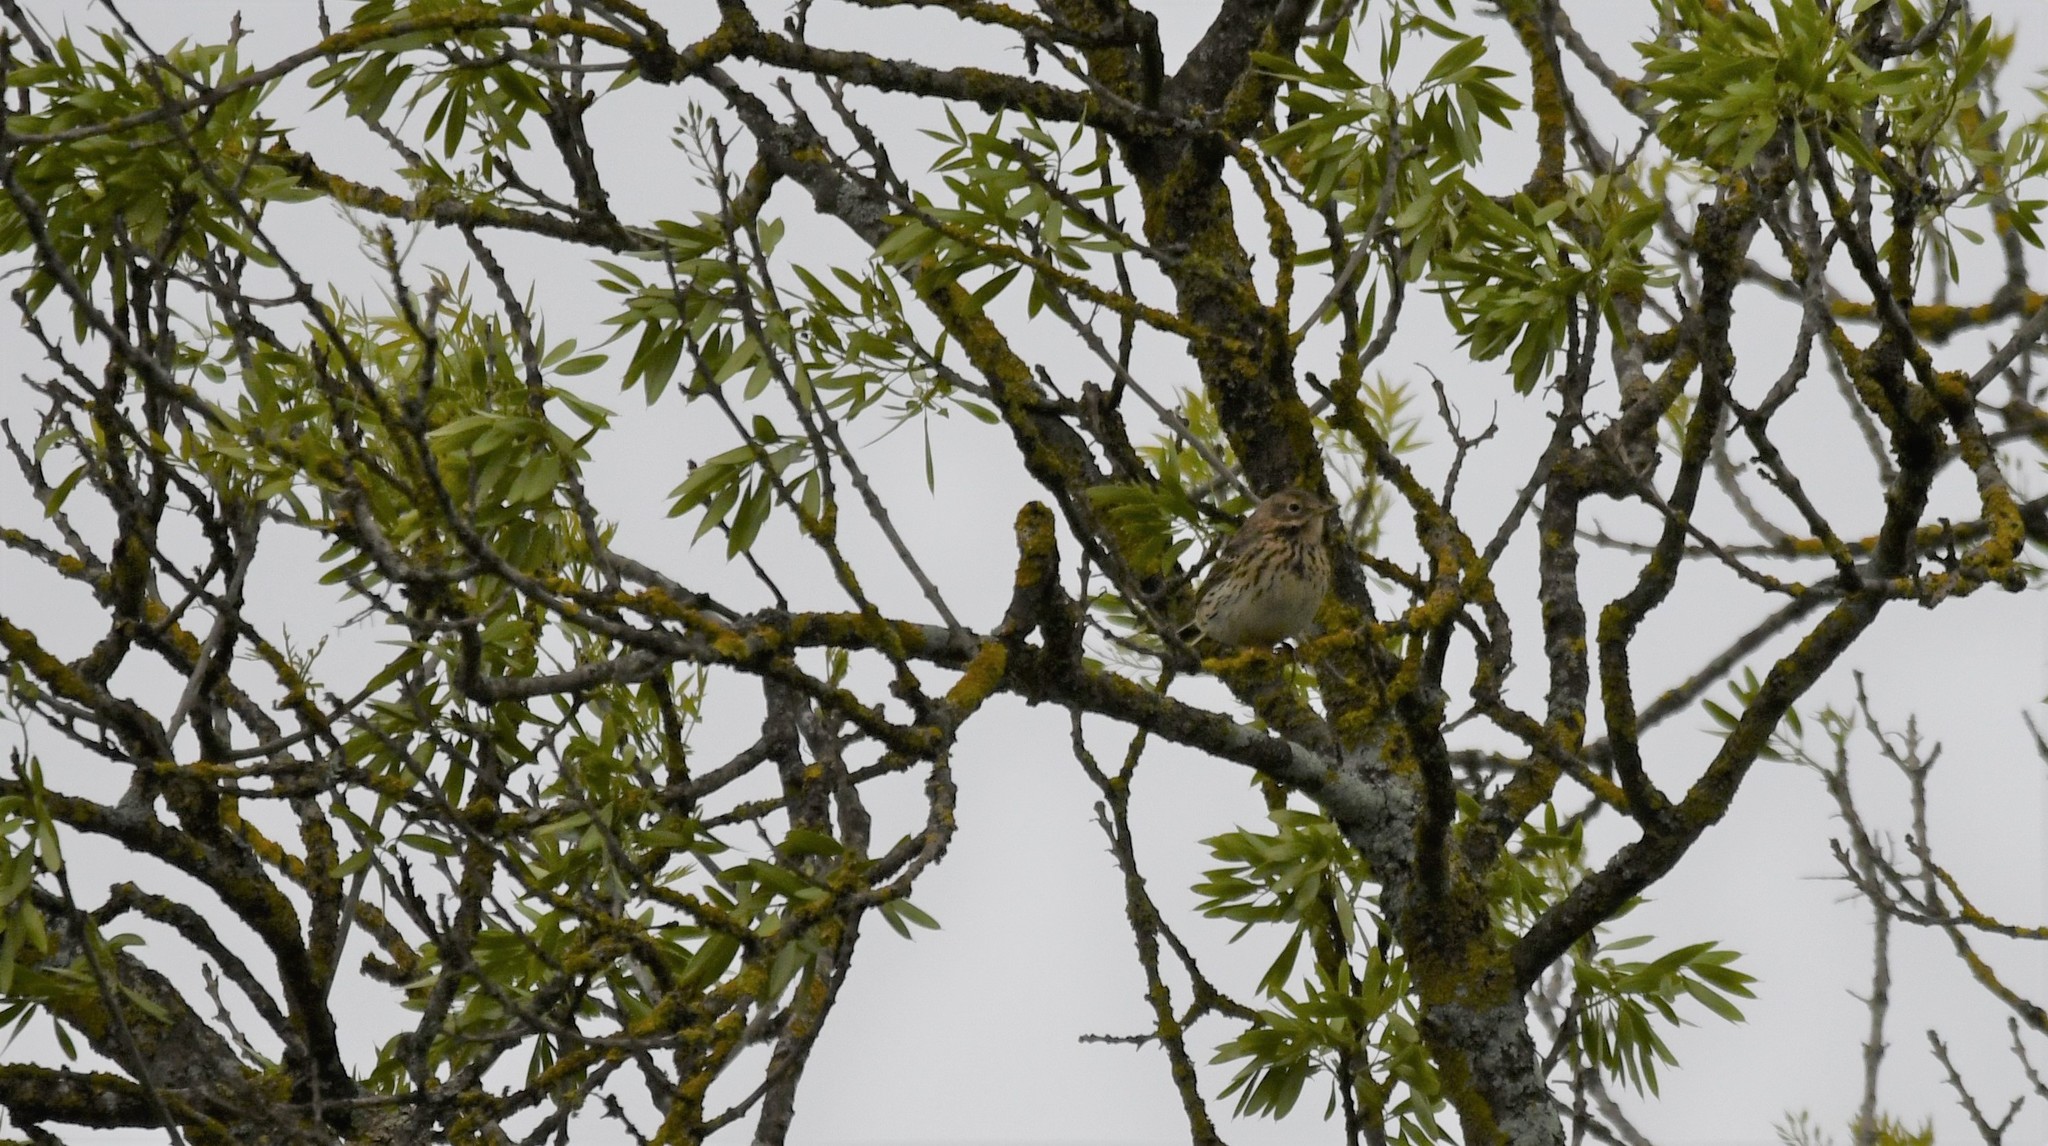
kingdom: Animalia
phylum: Chordata
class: Aves
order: Passeriformes
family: Motacillidae
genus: Anthus
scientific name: Anthus pratensis
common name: Meadow pipit
